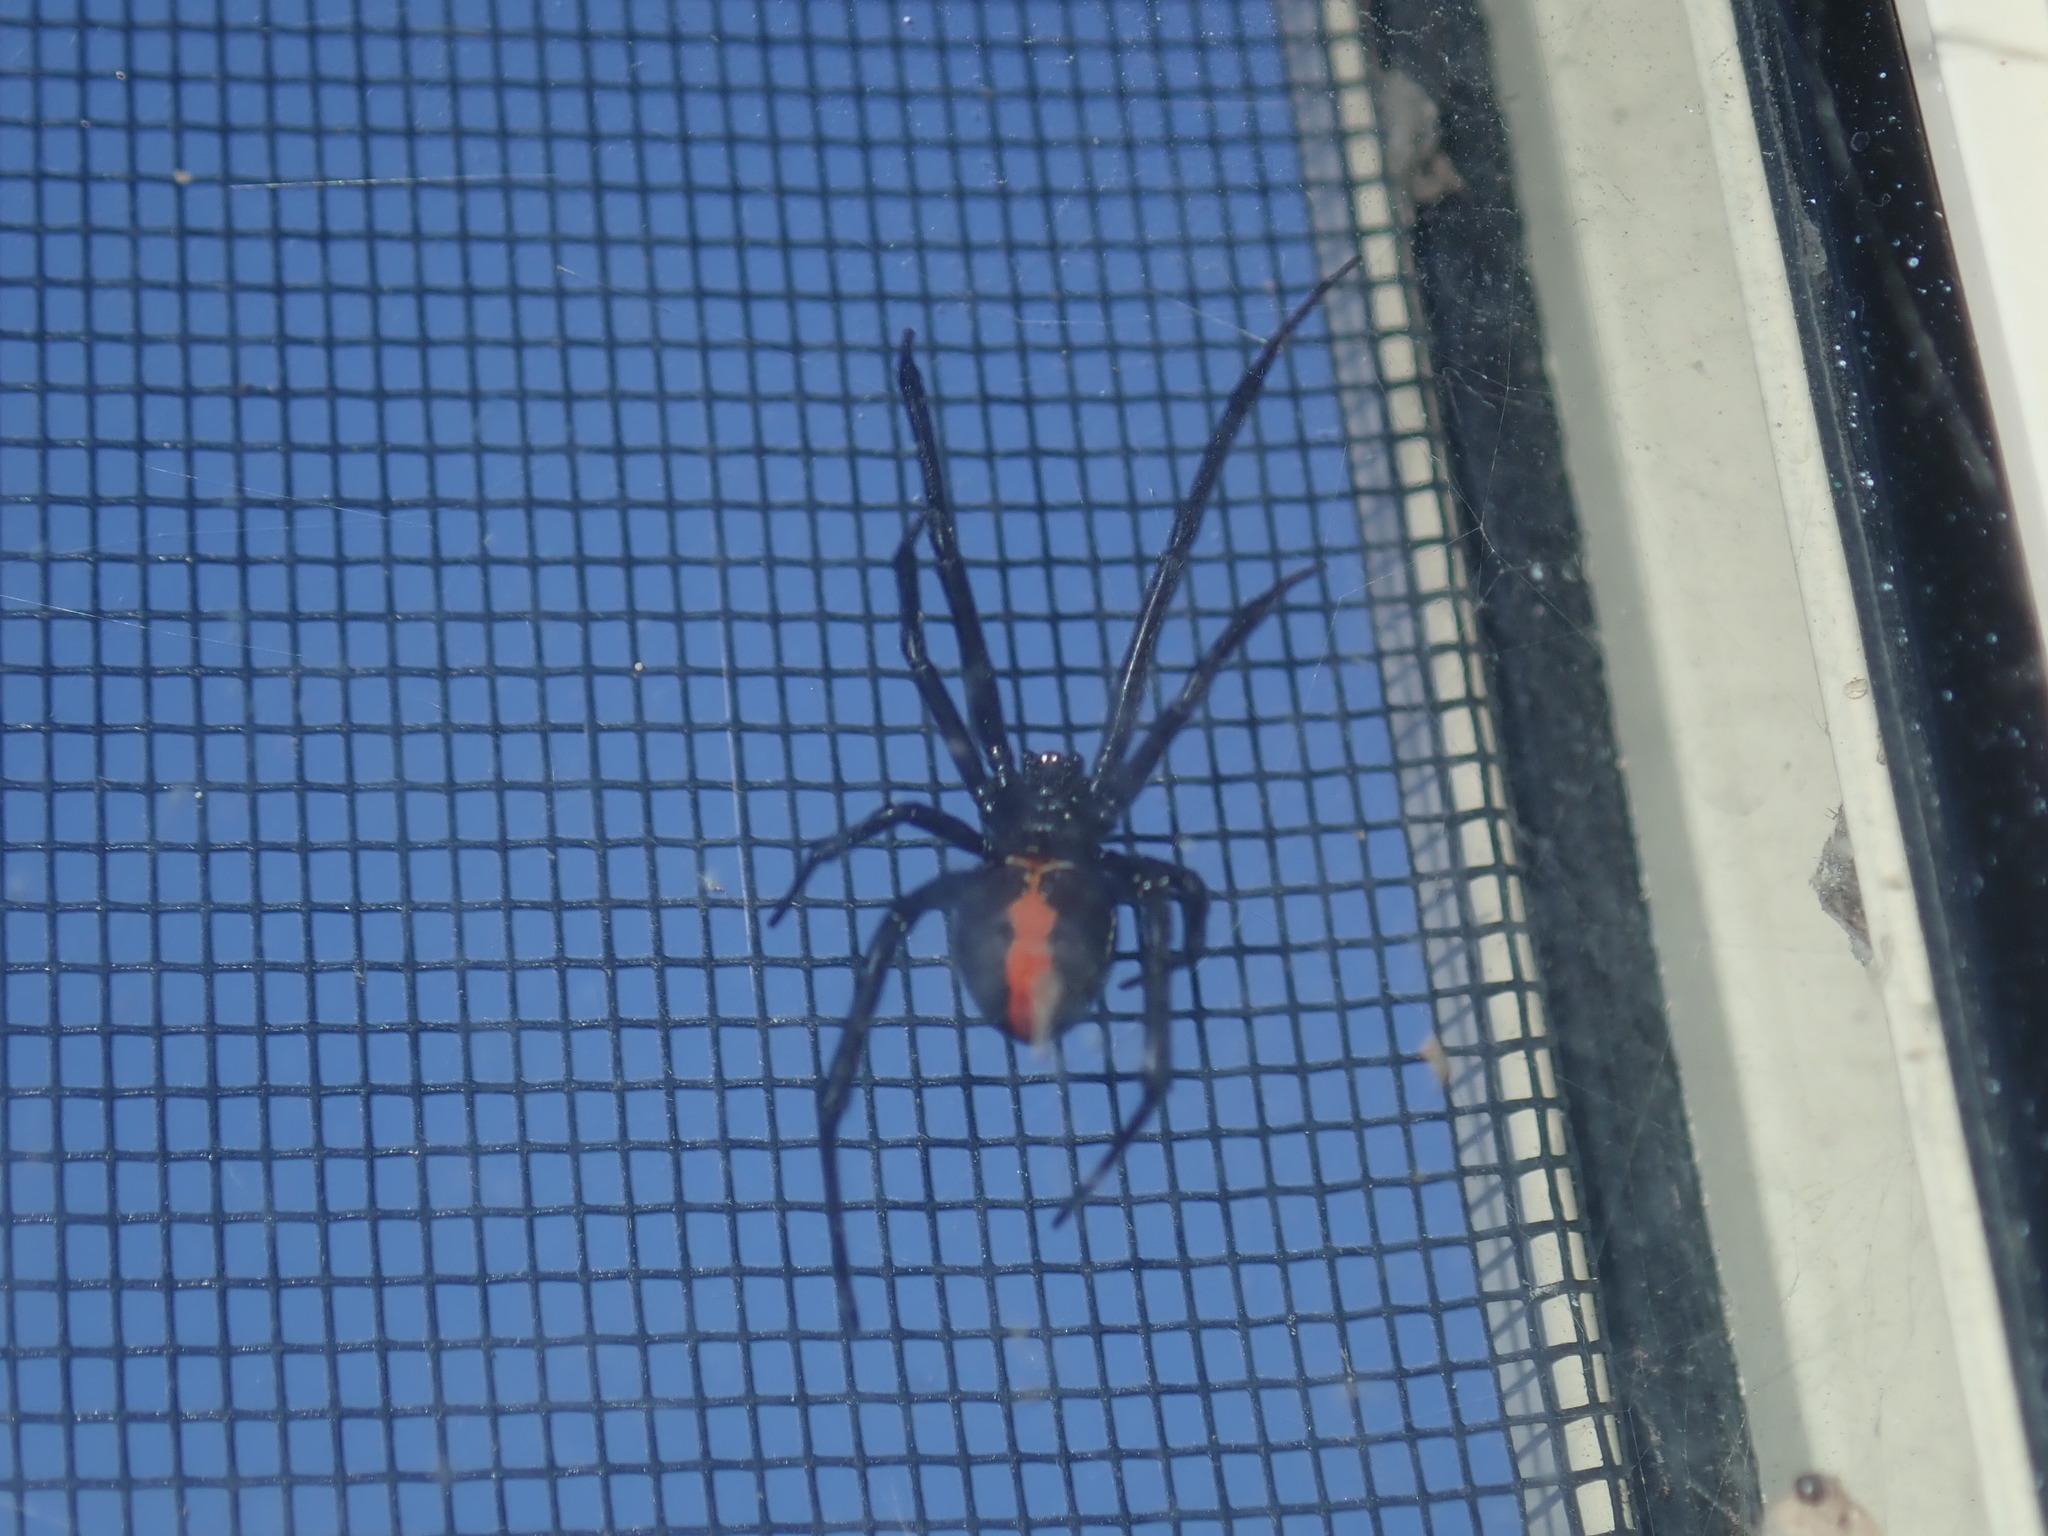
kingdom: Animalia
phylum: Arthropoda
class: Arachnida
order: Araneae
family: Theridiidae
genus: Latrodectus
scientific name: Latrodectus hasselti
